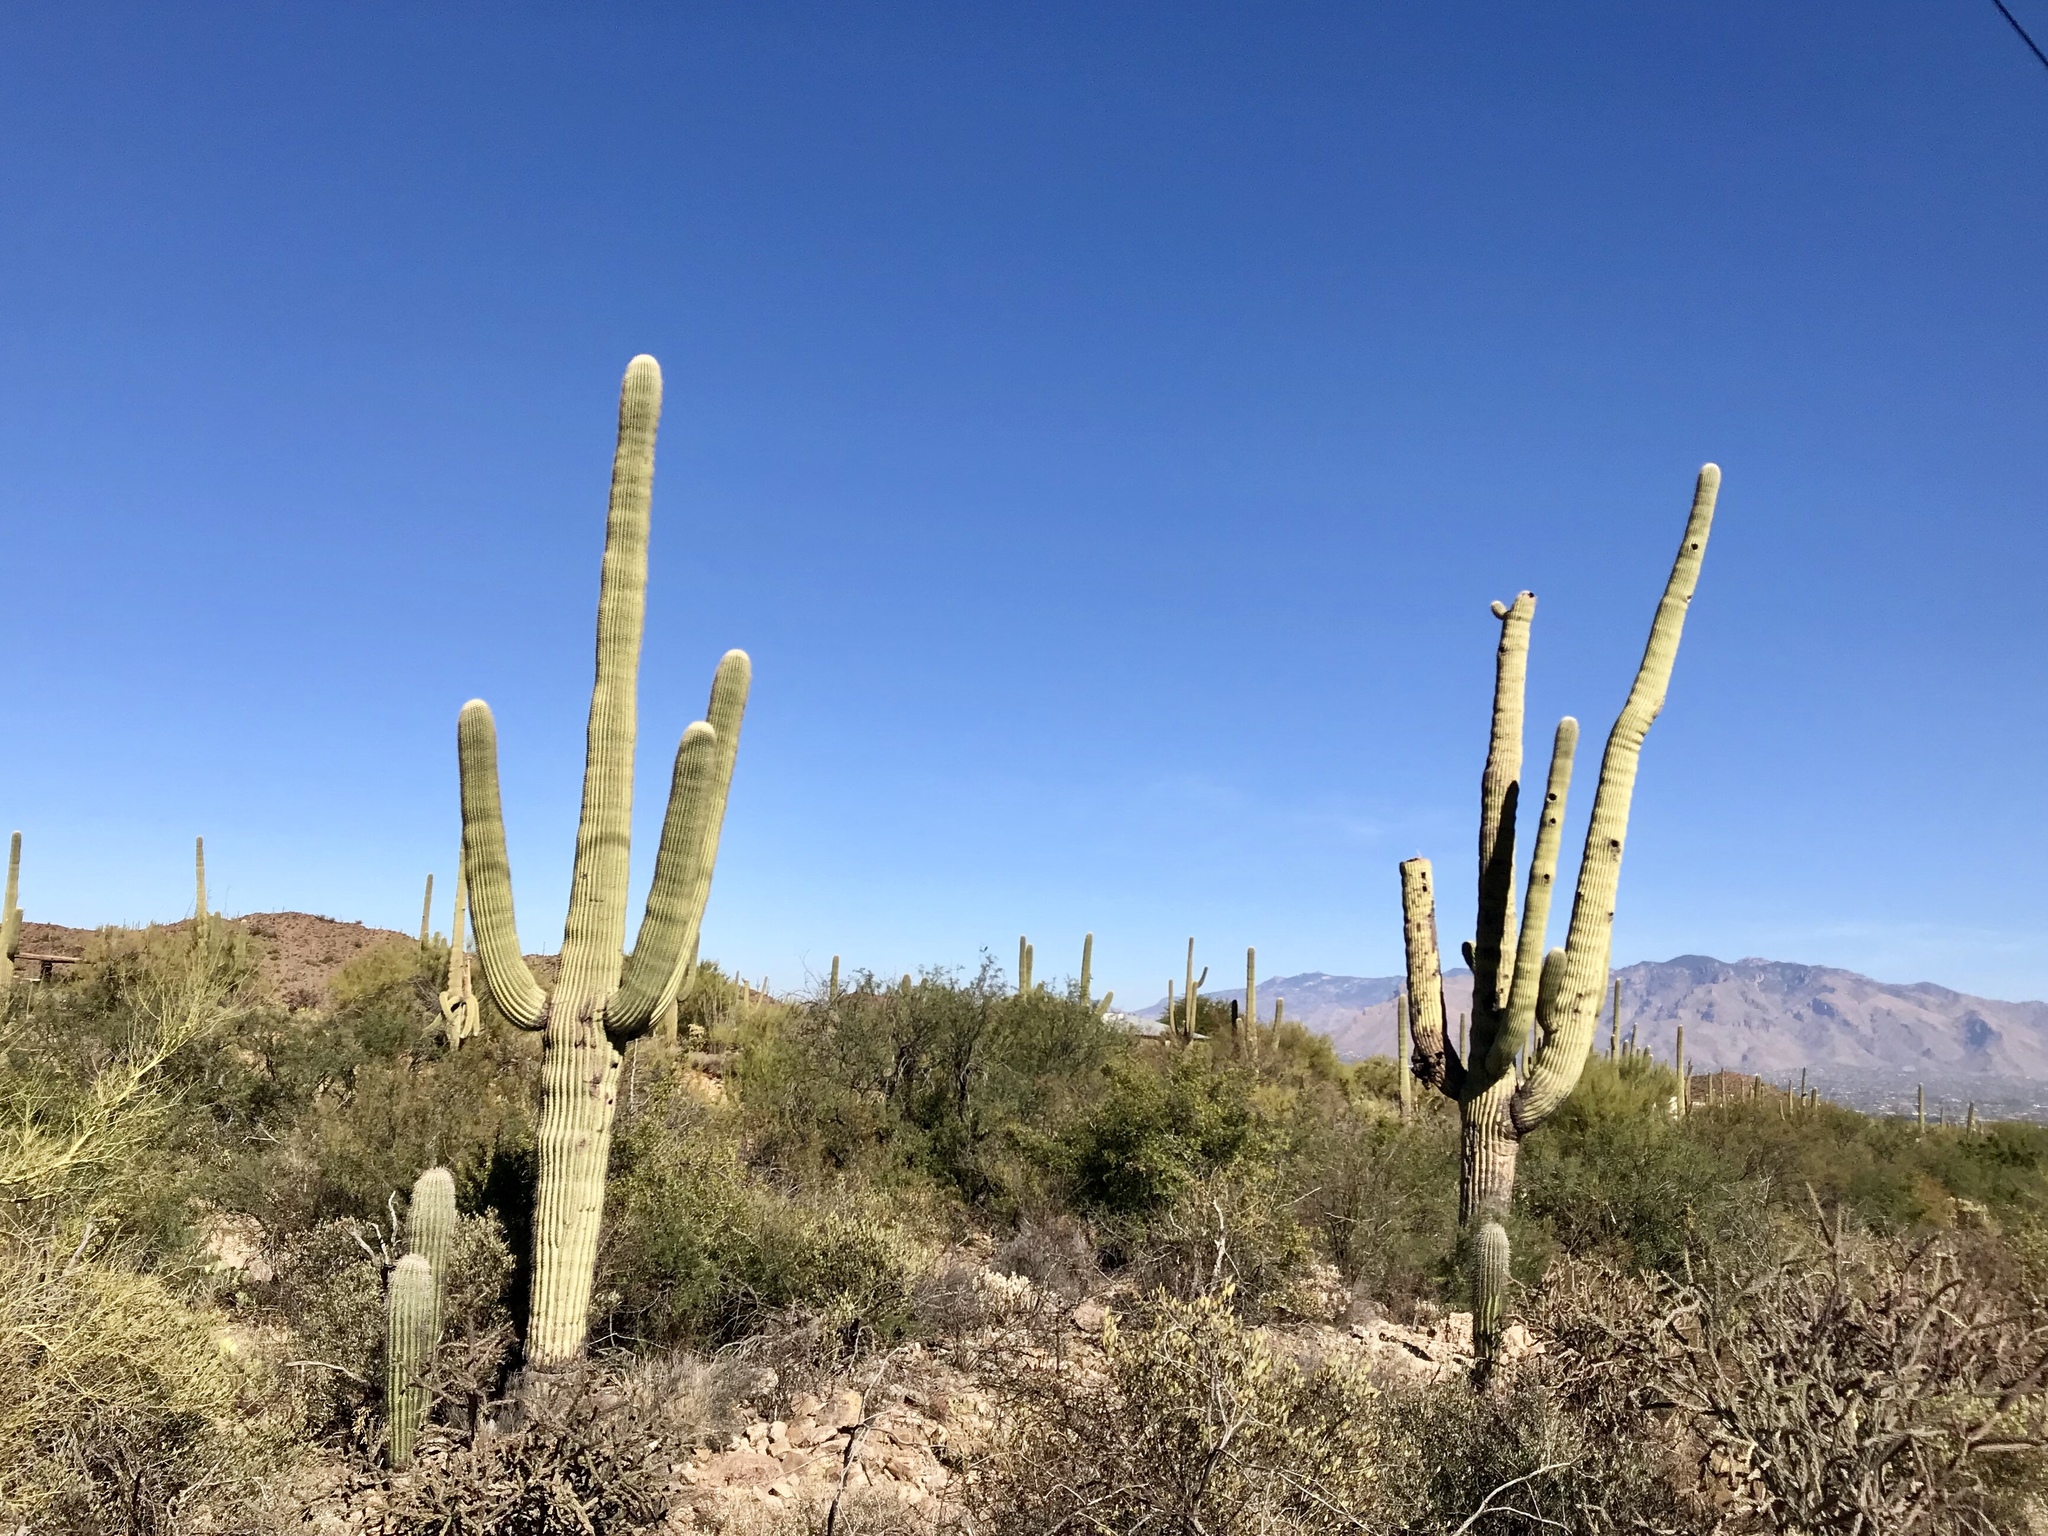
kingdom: Plantae
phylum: Tracheophyta
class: Magnoliopsida
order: Caryophyllales
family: Cactaceae
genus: Carnegiea
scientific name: Carnegiea gigantea
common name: Saguaro
